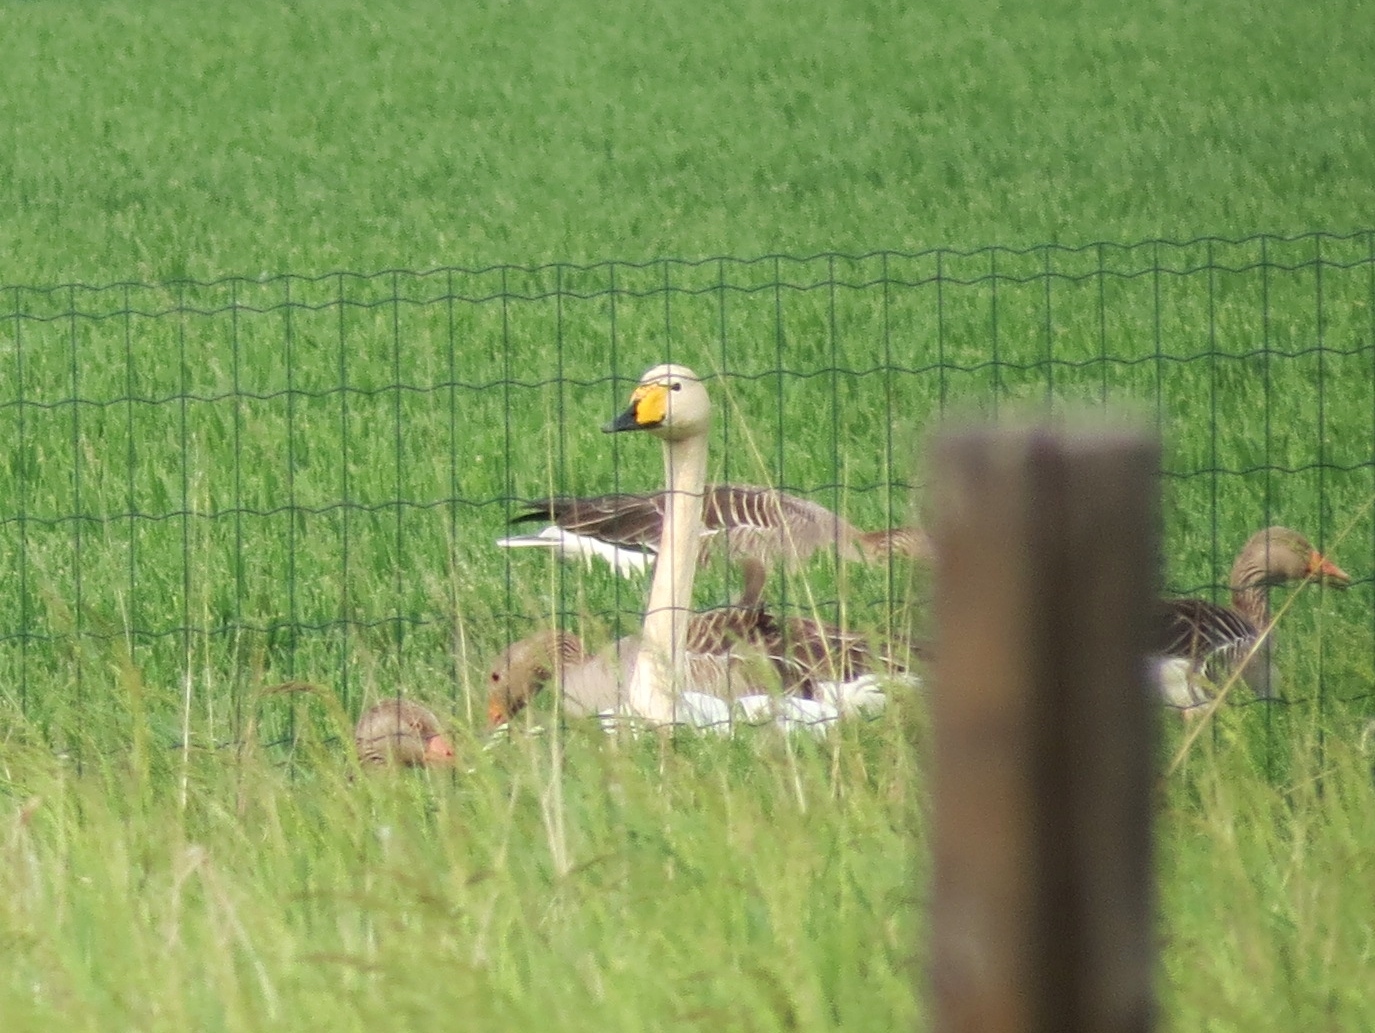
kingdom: Animalia
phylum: Chordata
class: Aves
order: Anseriformes
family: Anatidae
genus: Cygnus
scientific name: Cygnus cygnus
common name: Whooper swan
